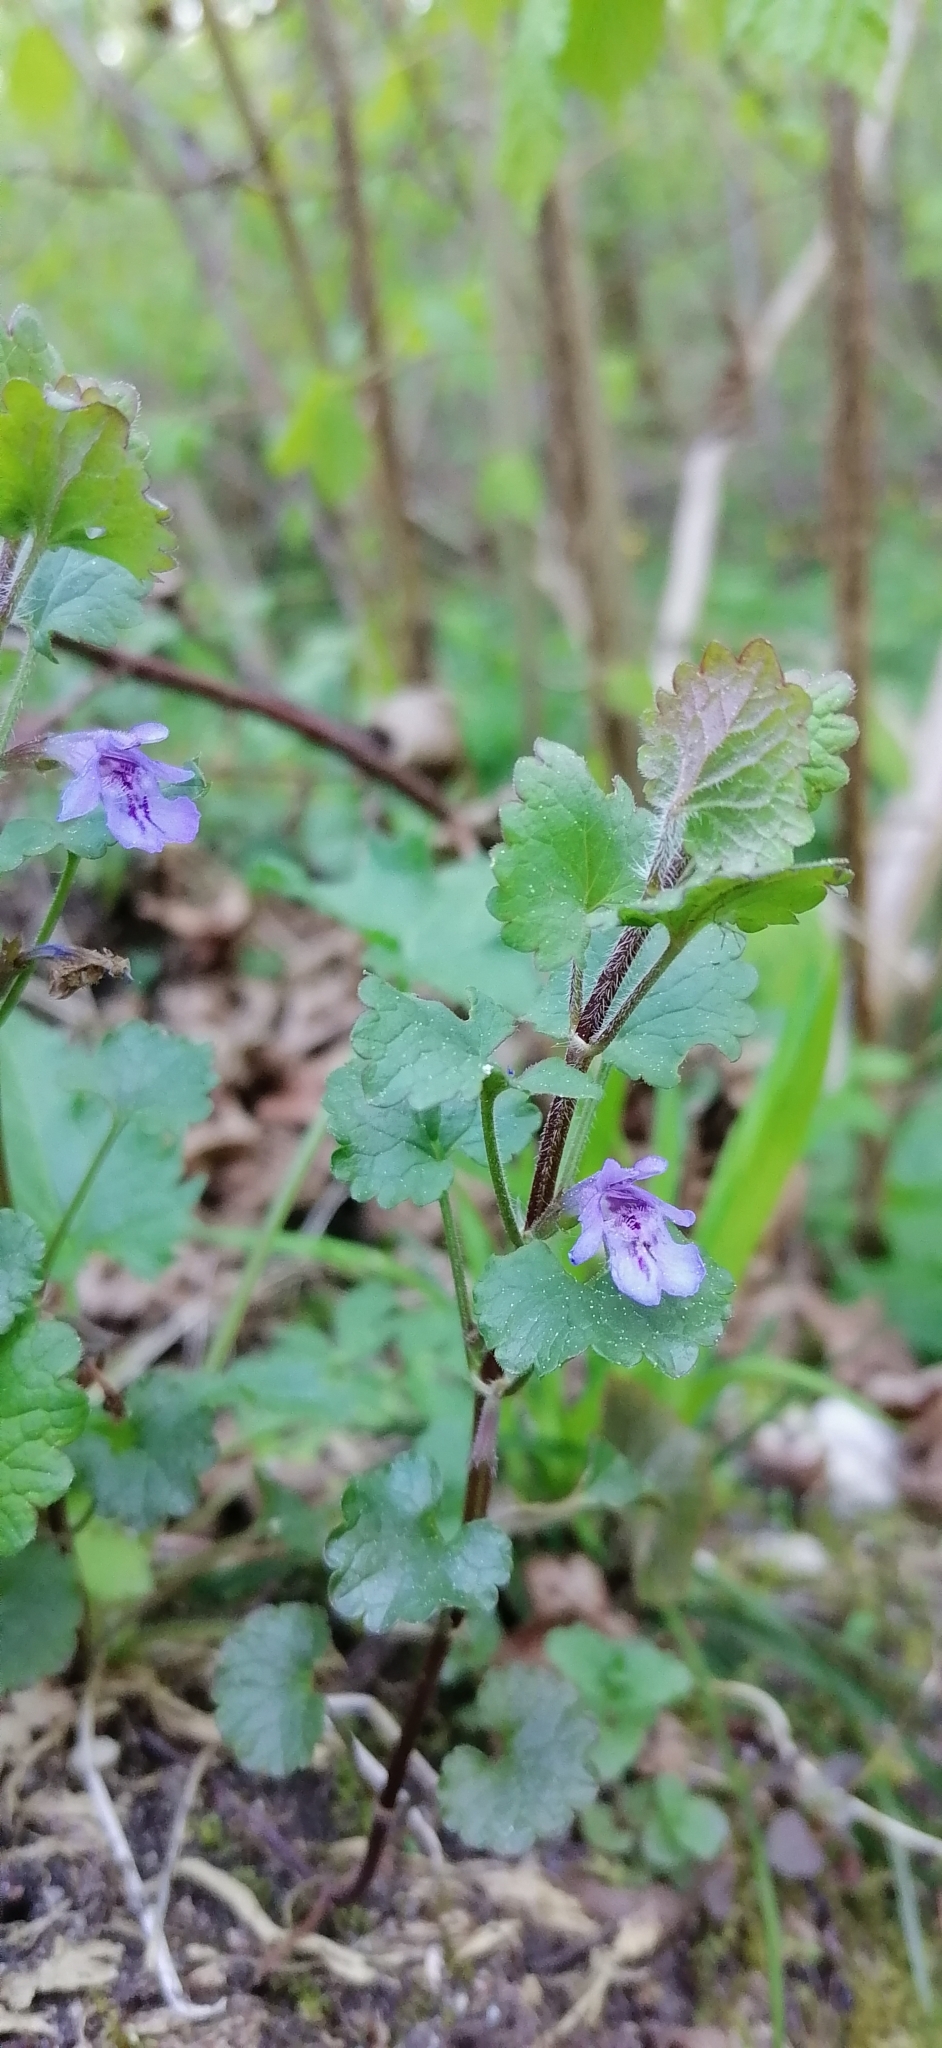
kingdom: Plantae
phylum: Tracheophyta
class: Magnoliopsida
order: Lamiales
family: Lamiaceae
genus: Glechoma
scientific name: Glechoma hederacea
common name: Ground ivy
